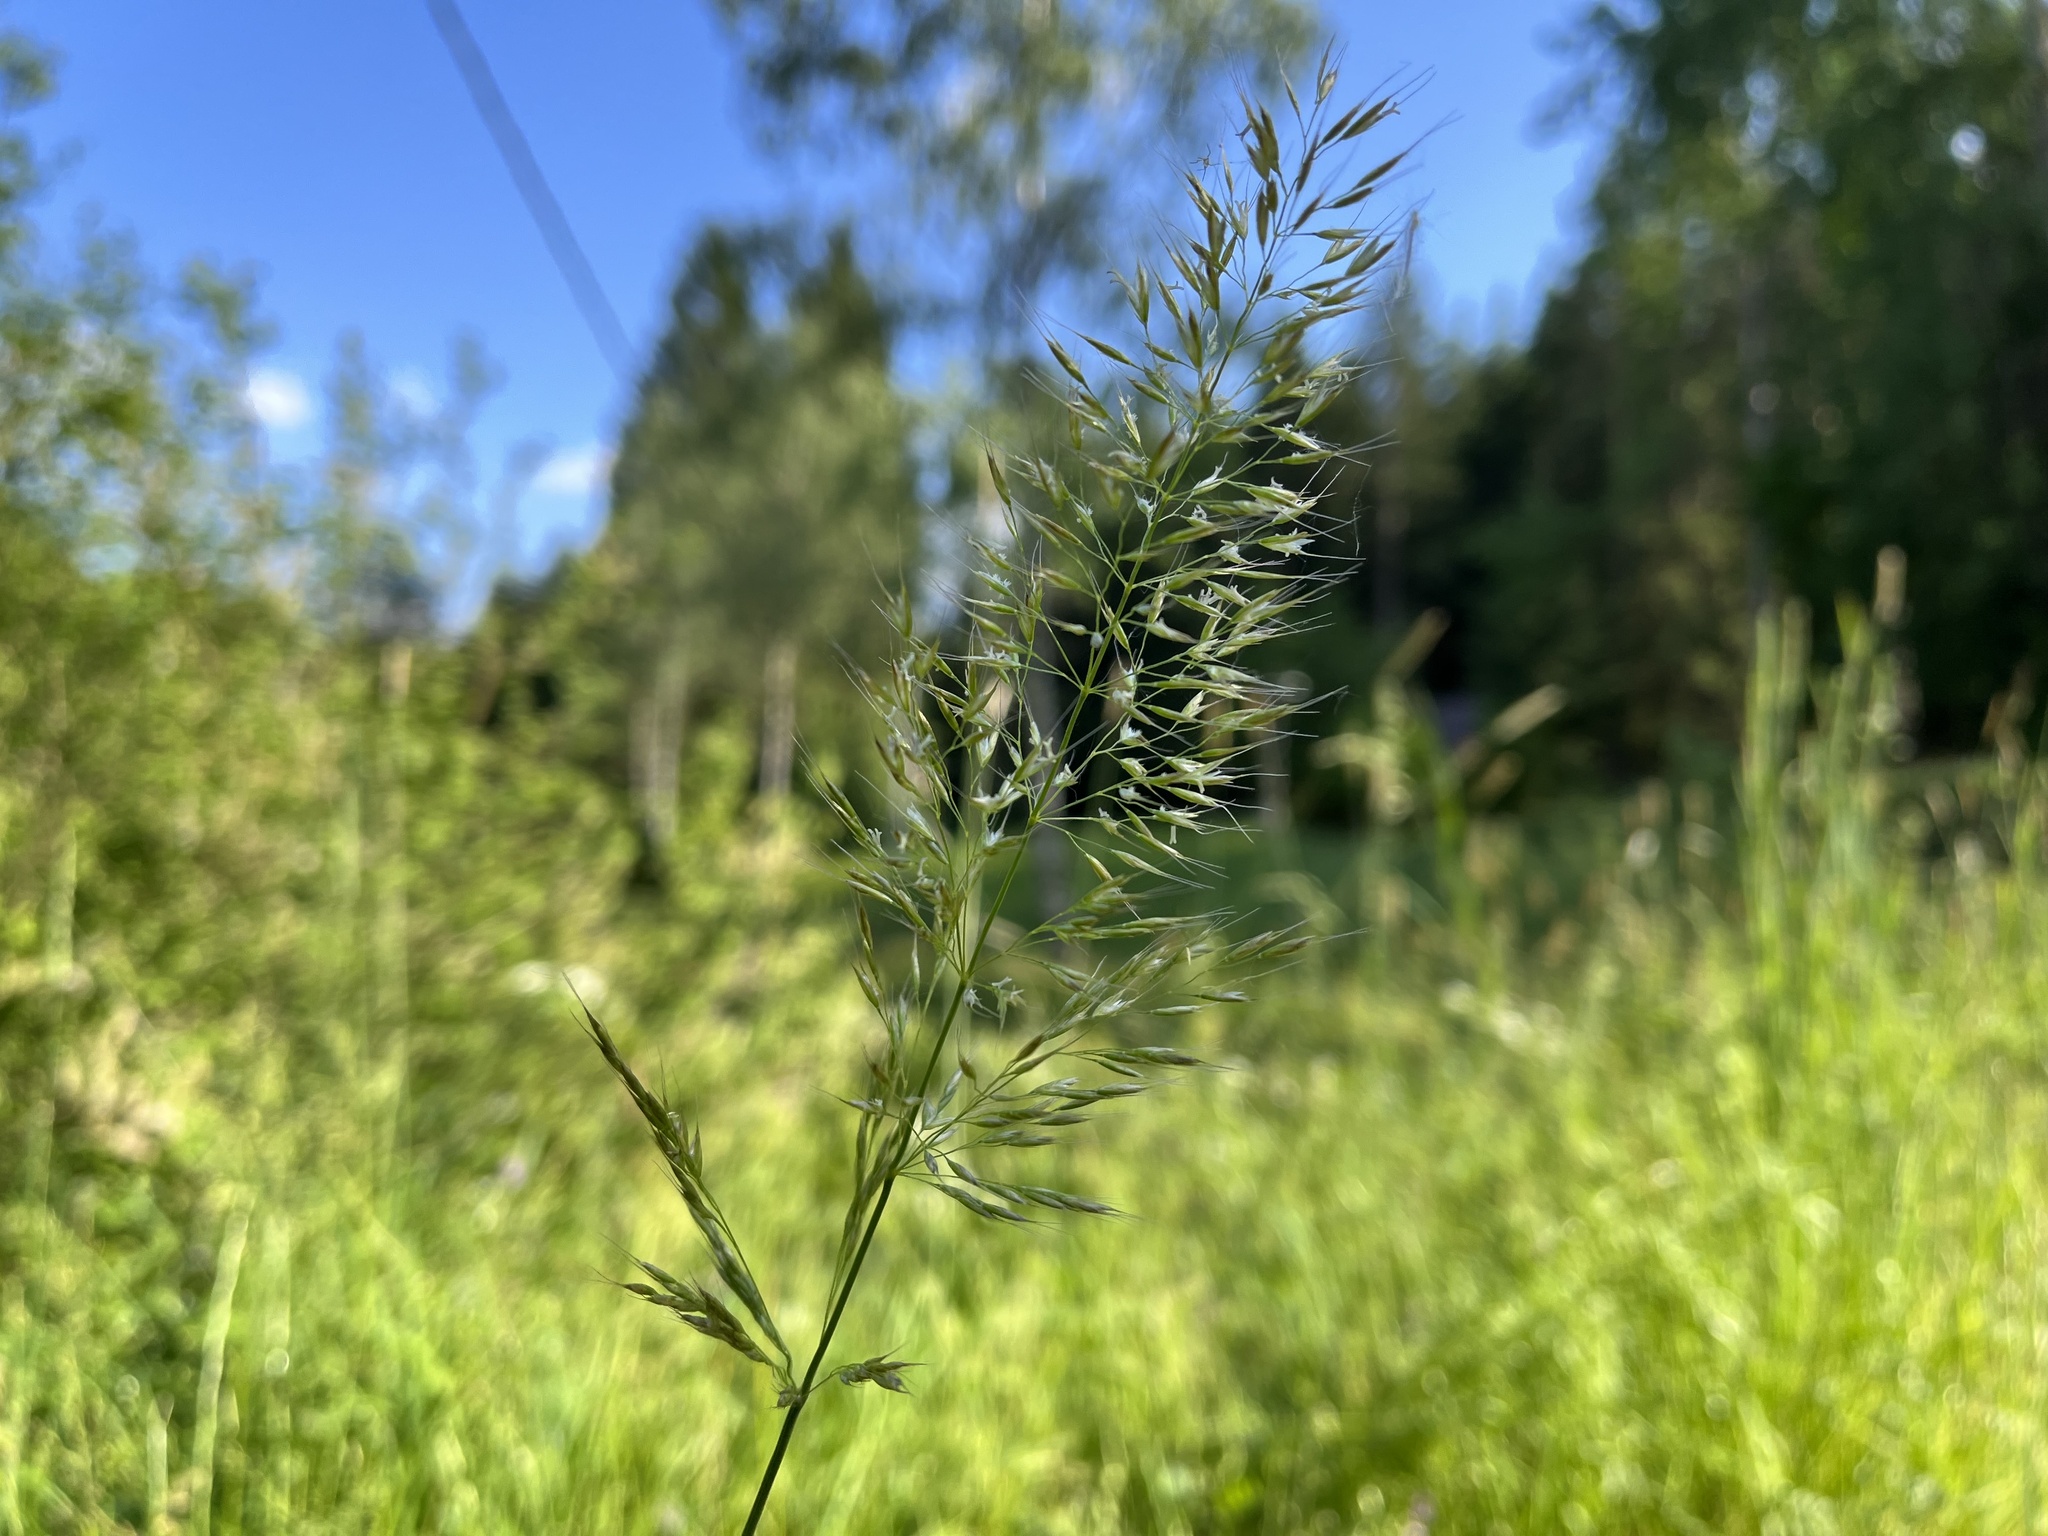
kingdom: Plantae
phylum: Tracheophyta
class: Liliopsida
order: Poales
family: Poaceae
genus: Trisetum
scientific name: Trisetum flavescens
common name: Yellow oat-grass
